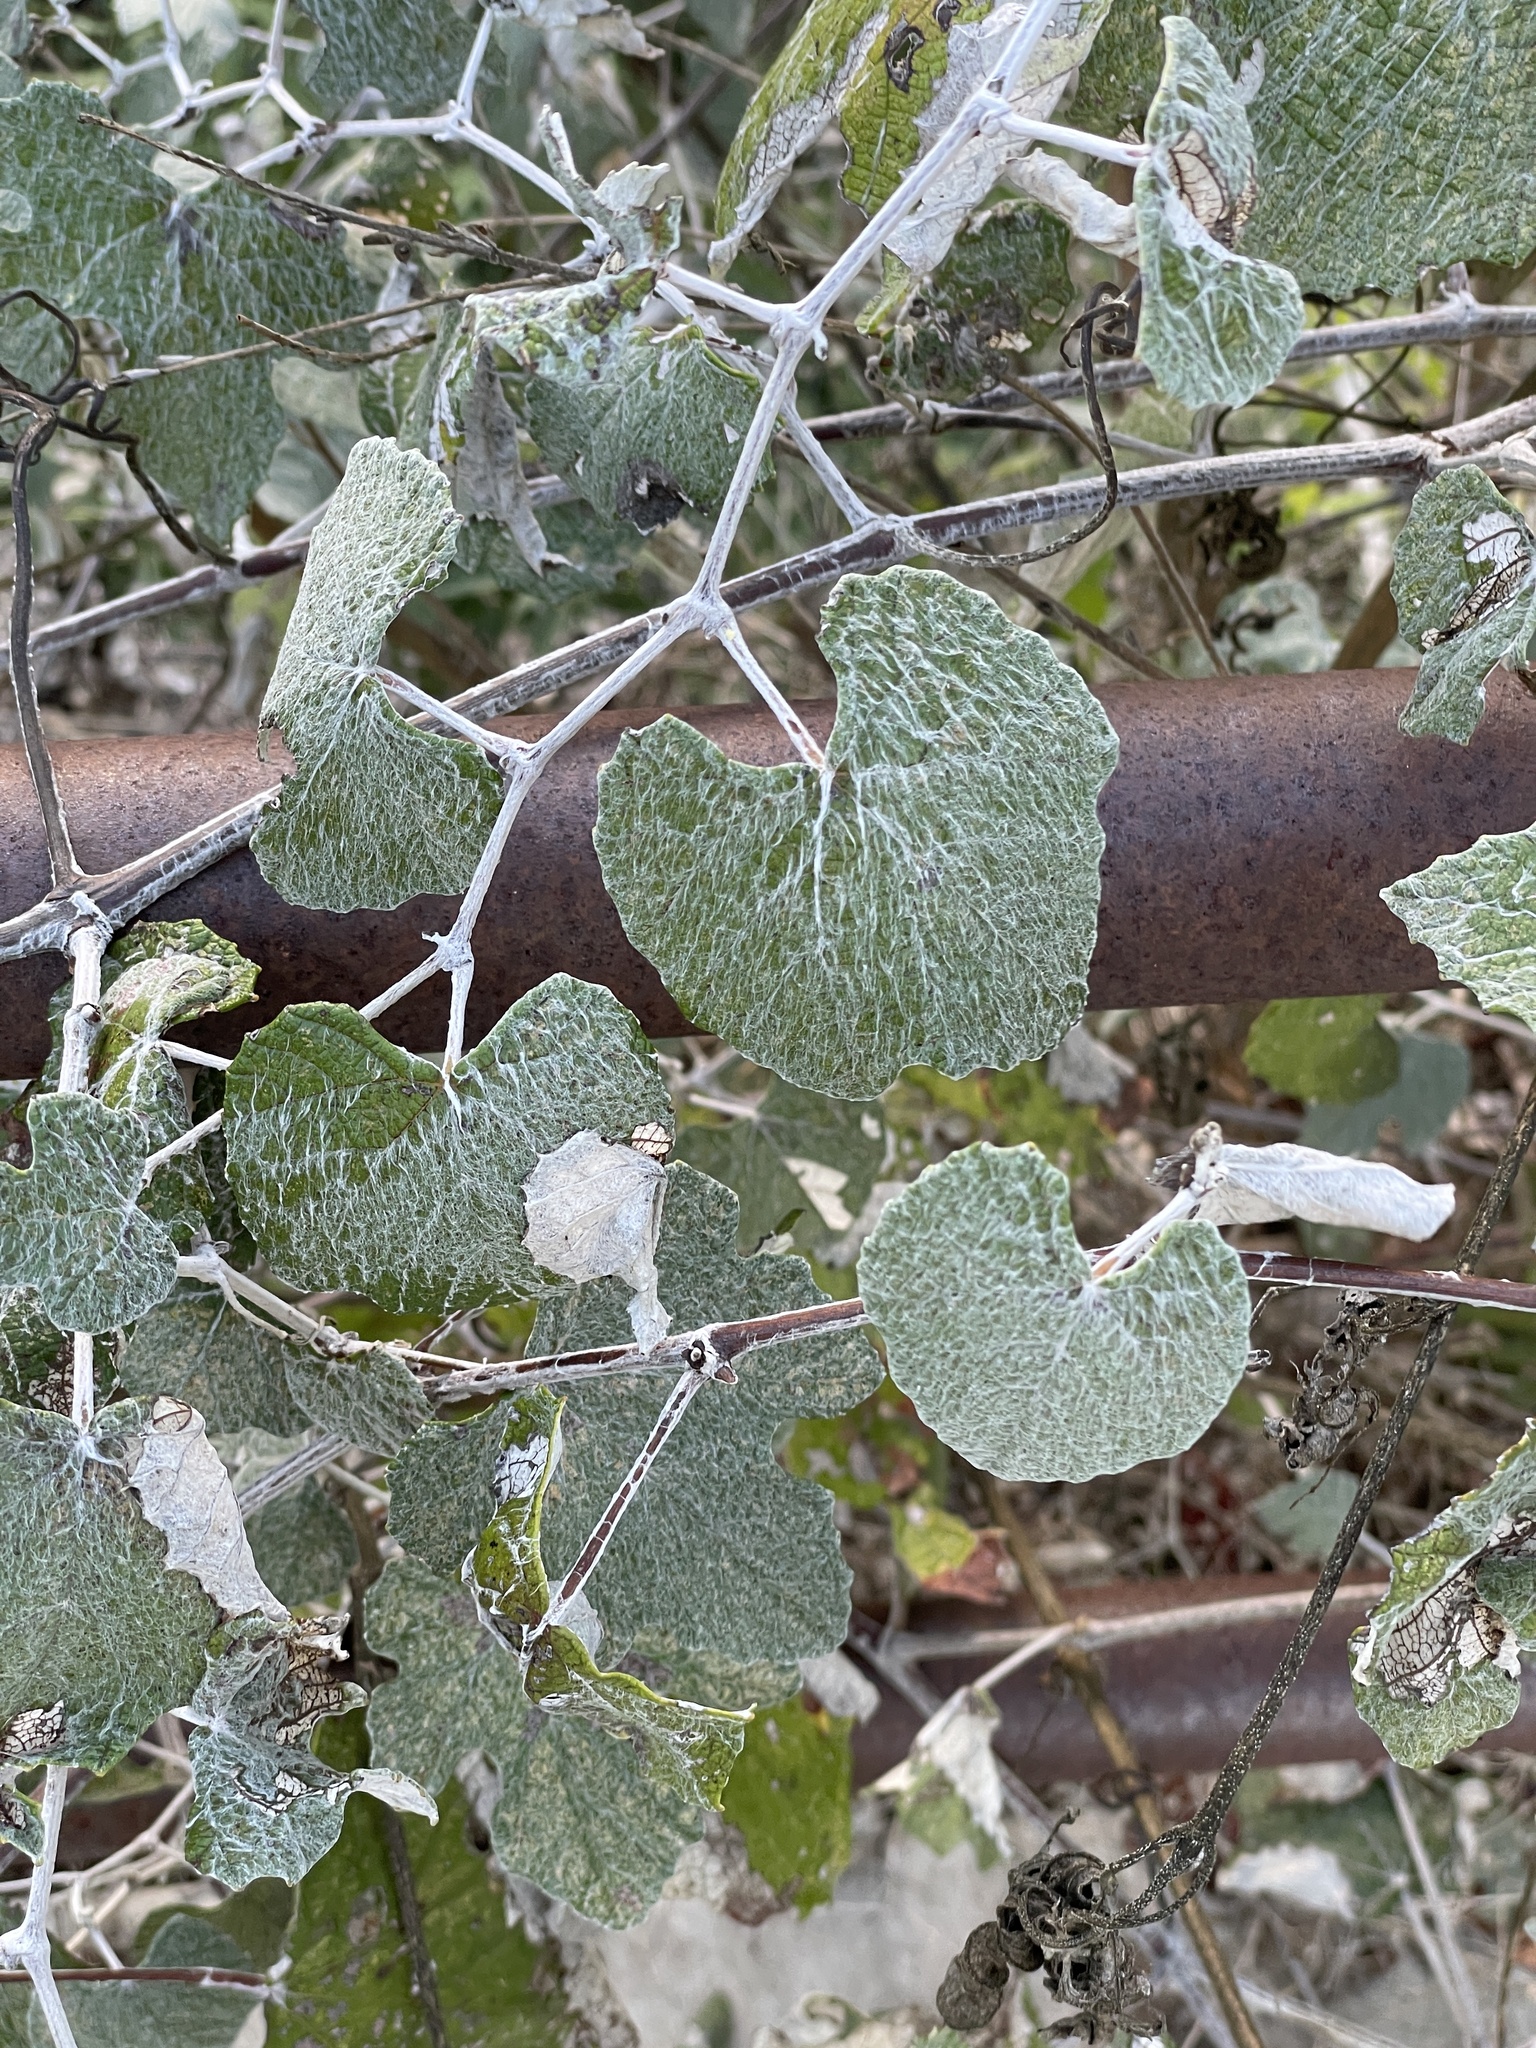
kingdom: Plantae
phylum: Tracheophyta
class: Magnoliopsida
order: Vitales
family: Vitaceae
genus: Vitis
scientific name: Vitis mustangensis
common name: Mustang grape
